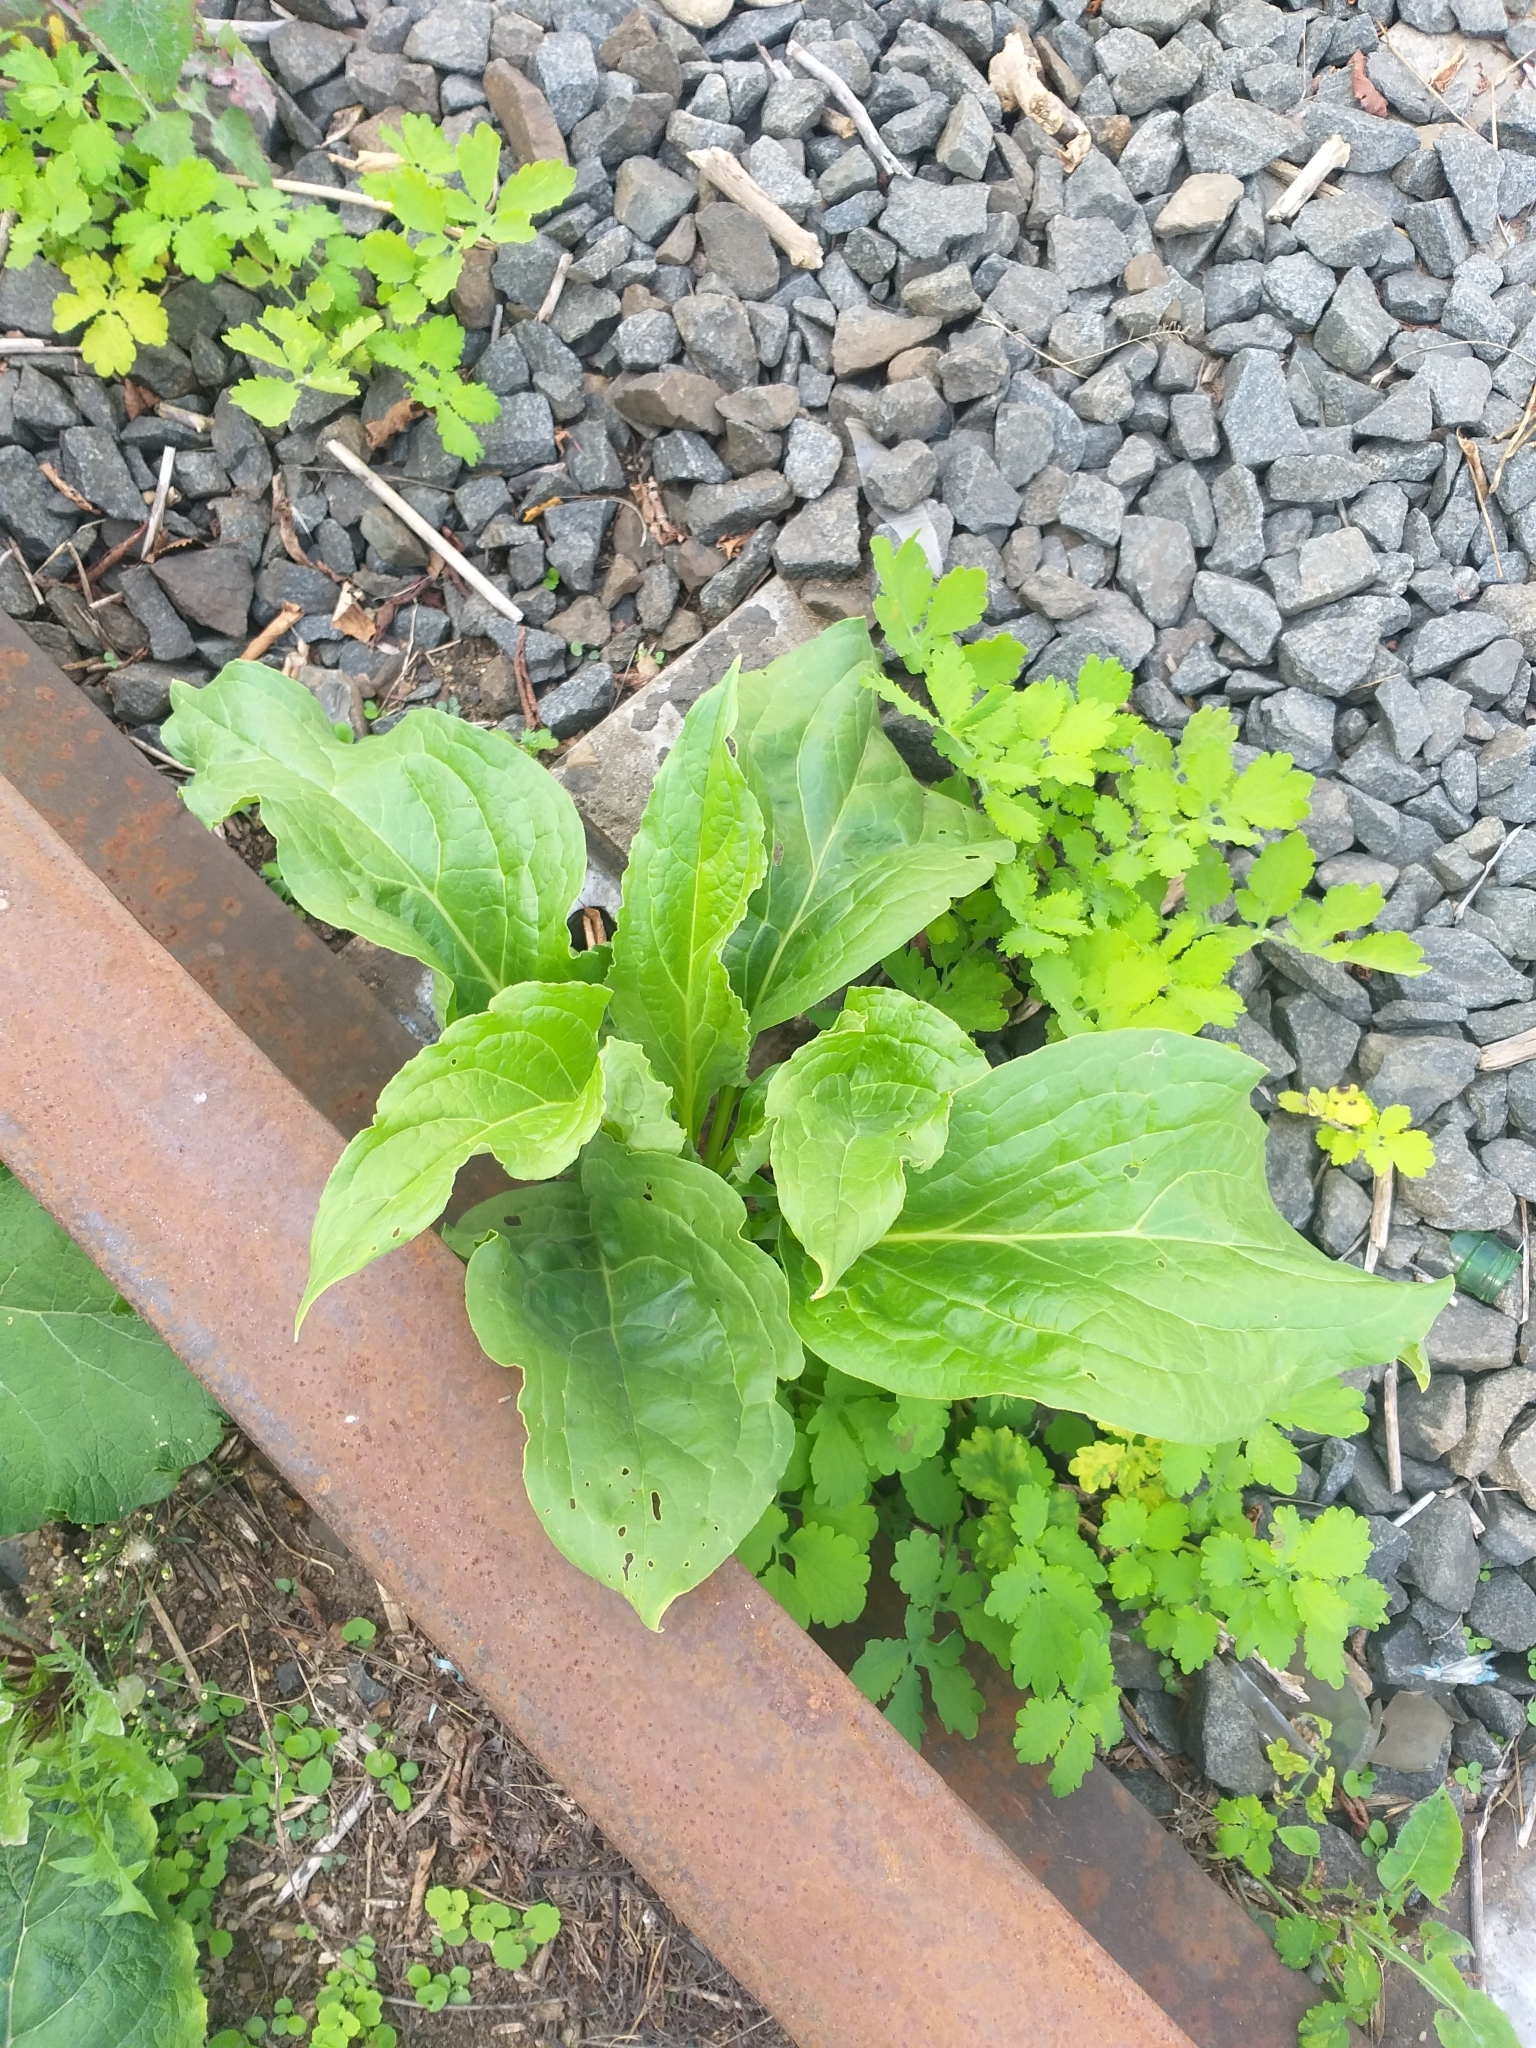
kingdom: Plantae
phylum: Tracheophyta
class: Magnoliopsida
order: Boraginales
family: Boraginaceae
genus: Cynoglossum
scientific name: Cynoglossum officinale
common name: Hound's-tongue
